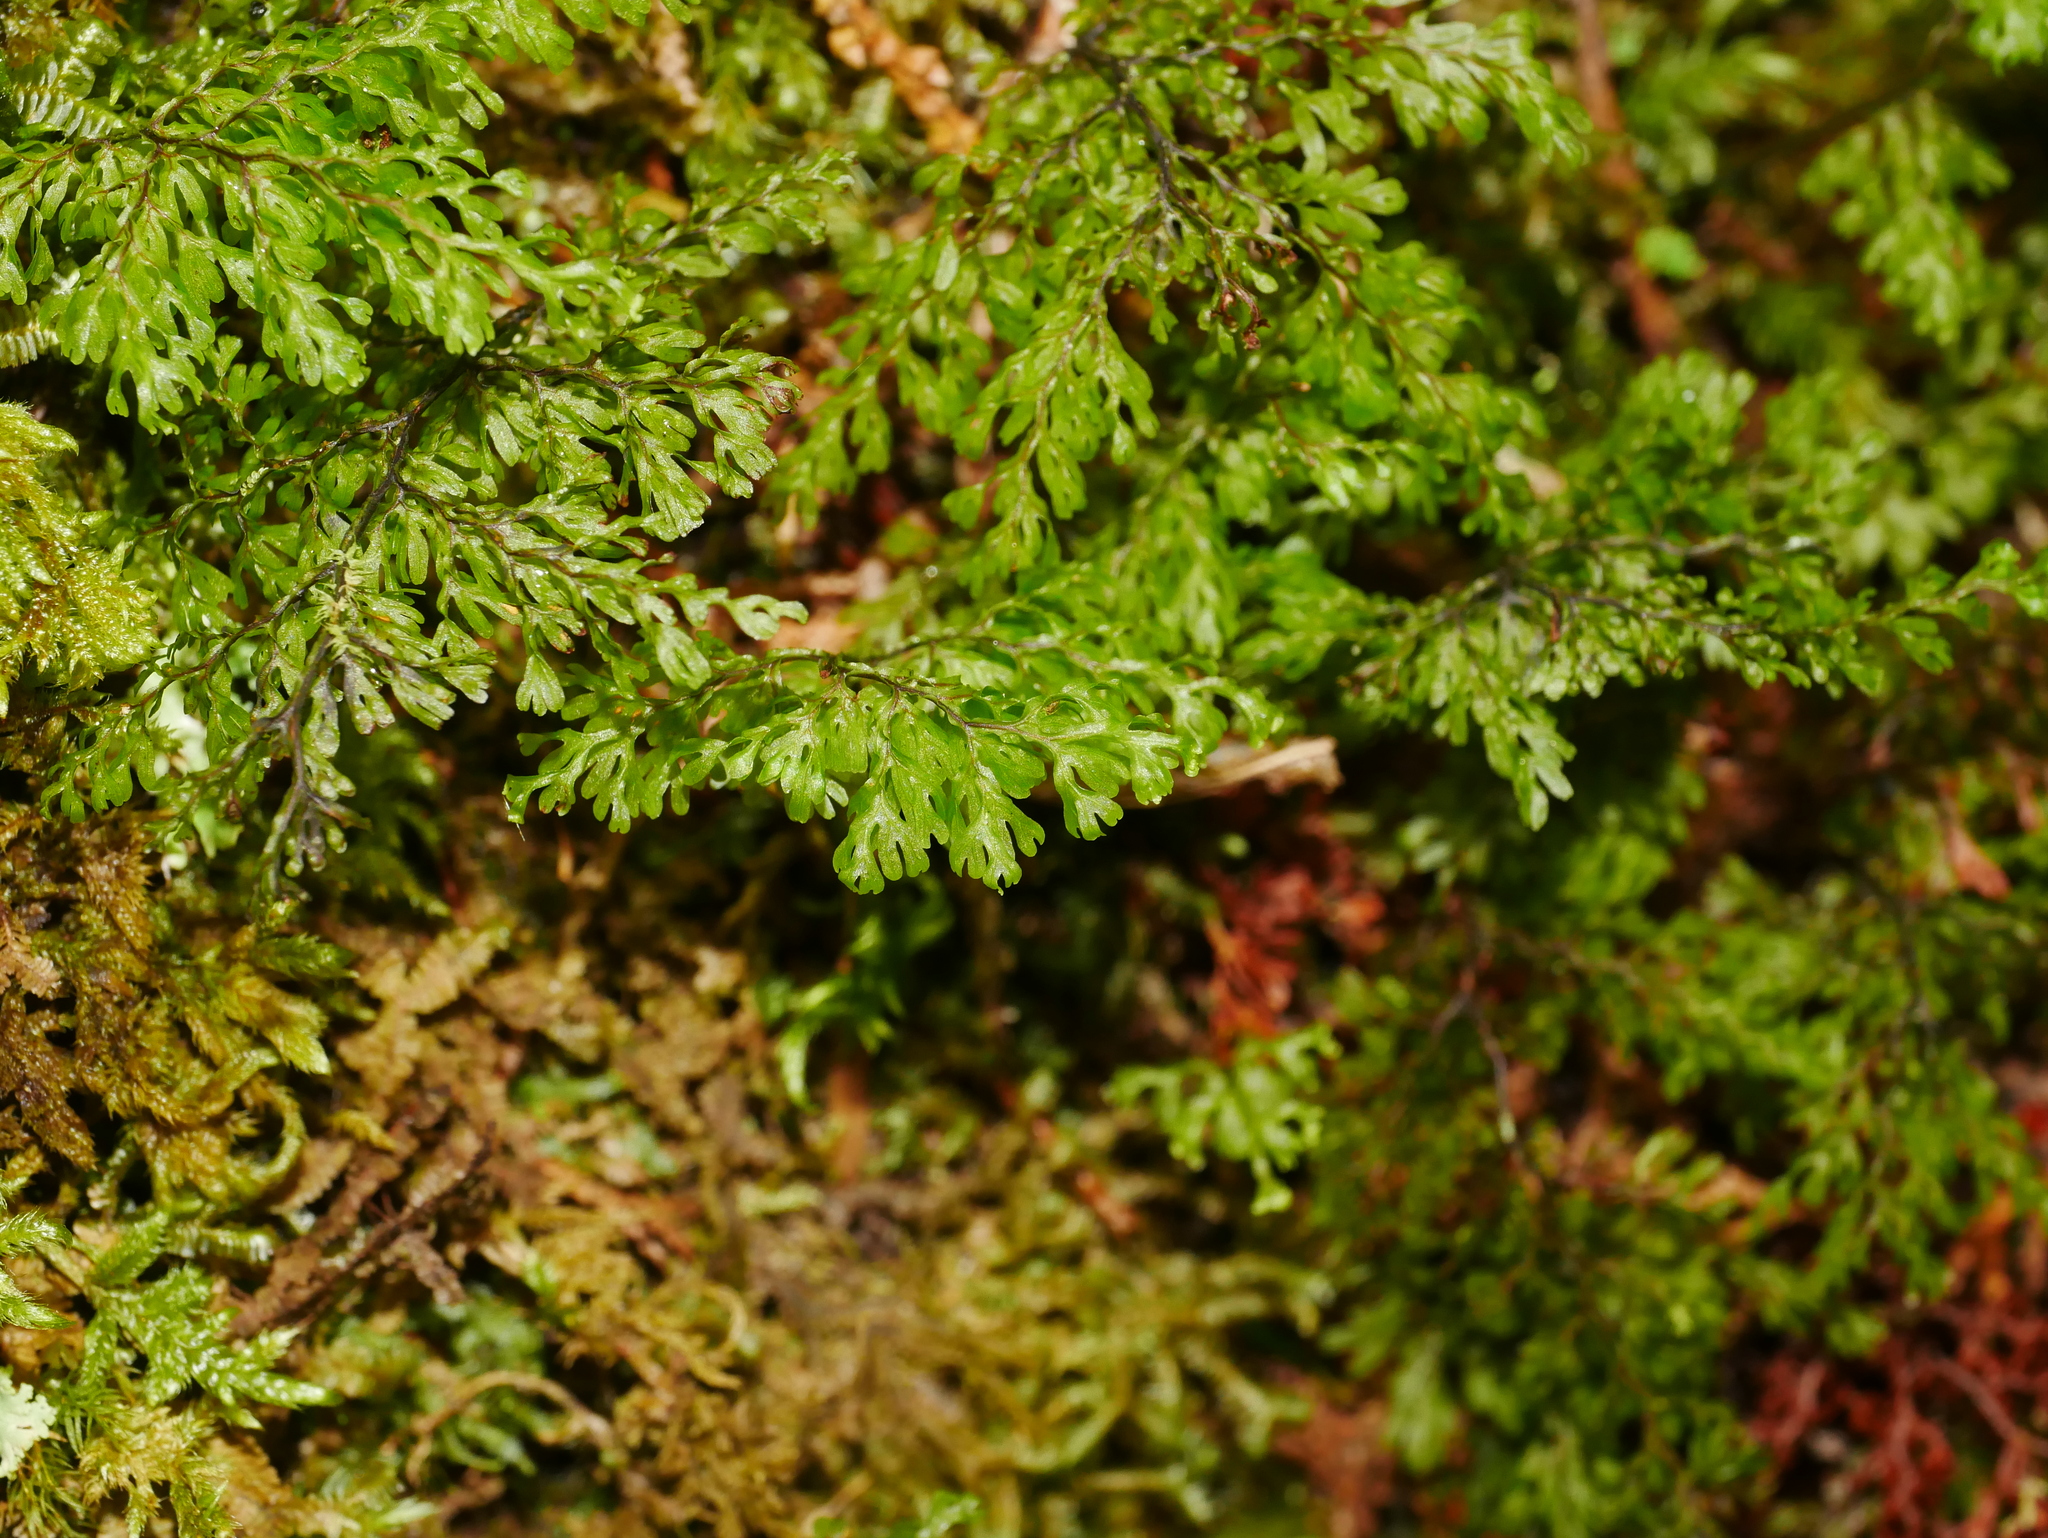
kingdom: Plantae
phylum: Tracheophyta
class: Polypodiopsida
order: Hymenophyllales
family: Hymenophyllaceae
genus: Hymenophyllum
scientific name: Hymenophyllum fujisanense
